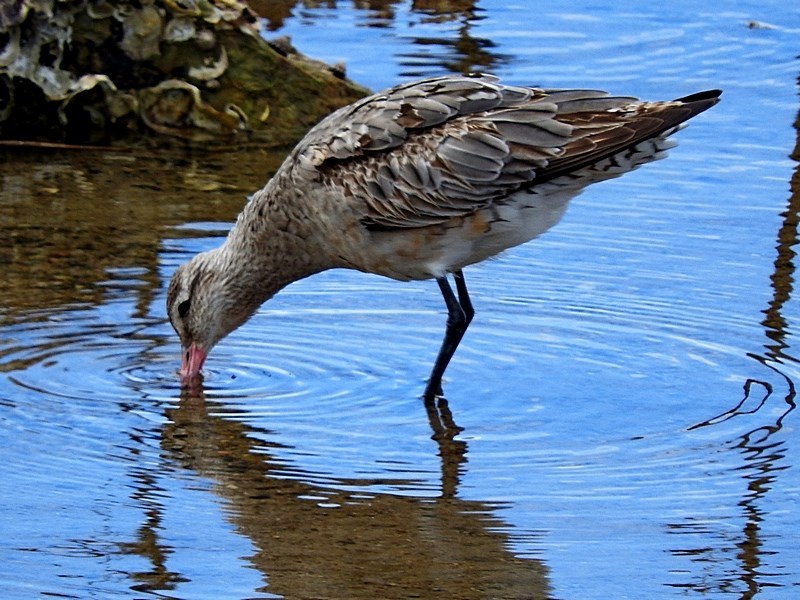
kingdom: Animalia
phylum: Chordata
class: Aves
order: Charadriiformes
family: Scolopacidae
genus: Limosa
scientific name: Limosa lapponica
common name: Bar-tailed godwit
